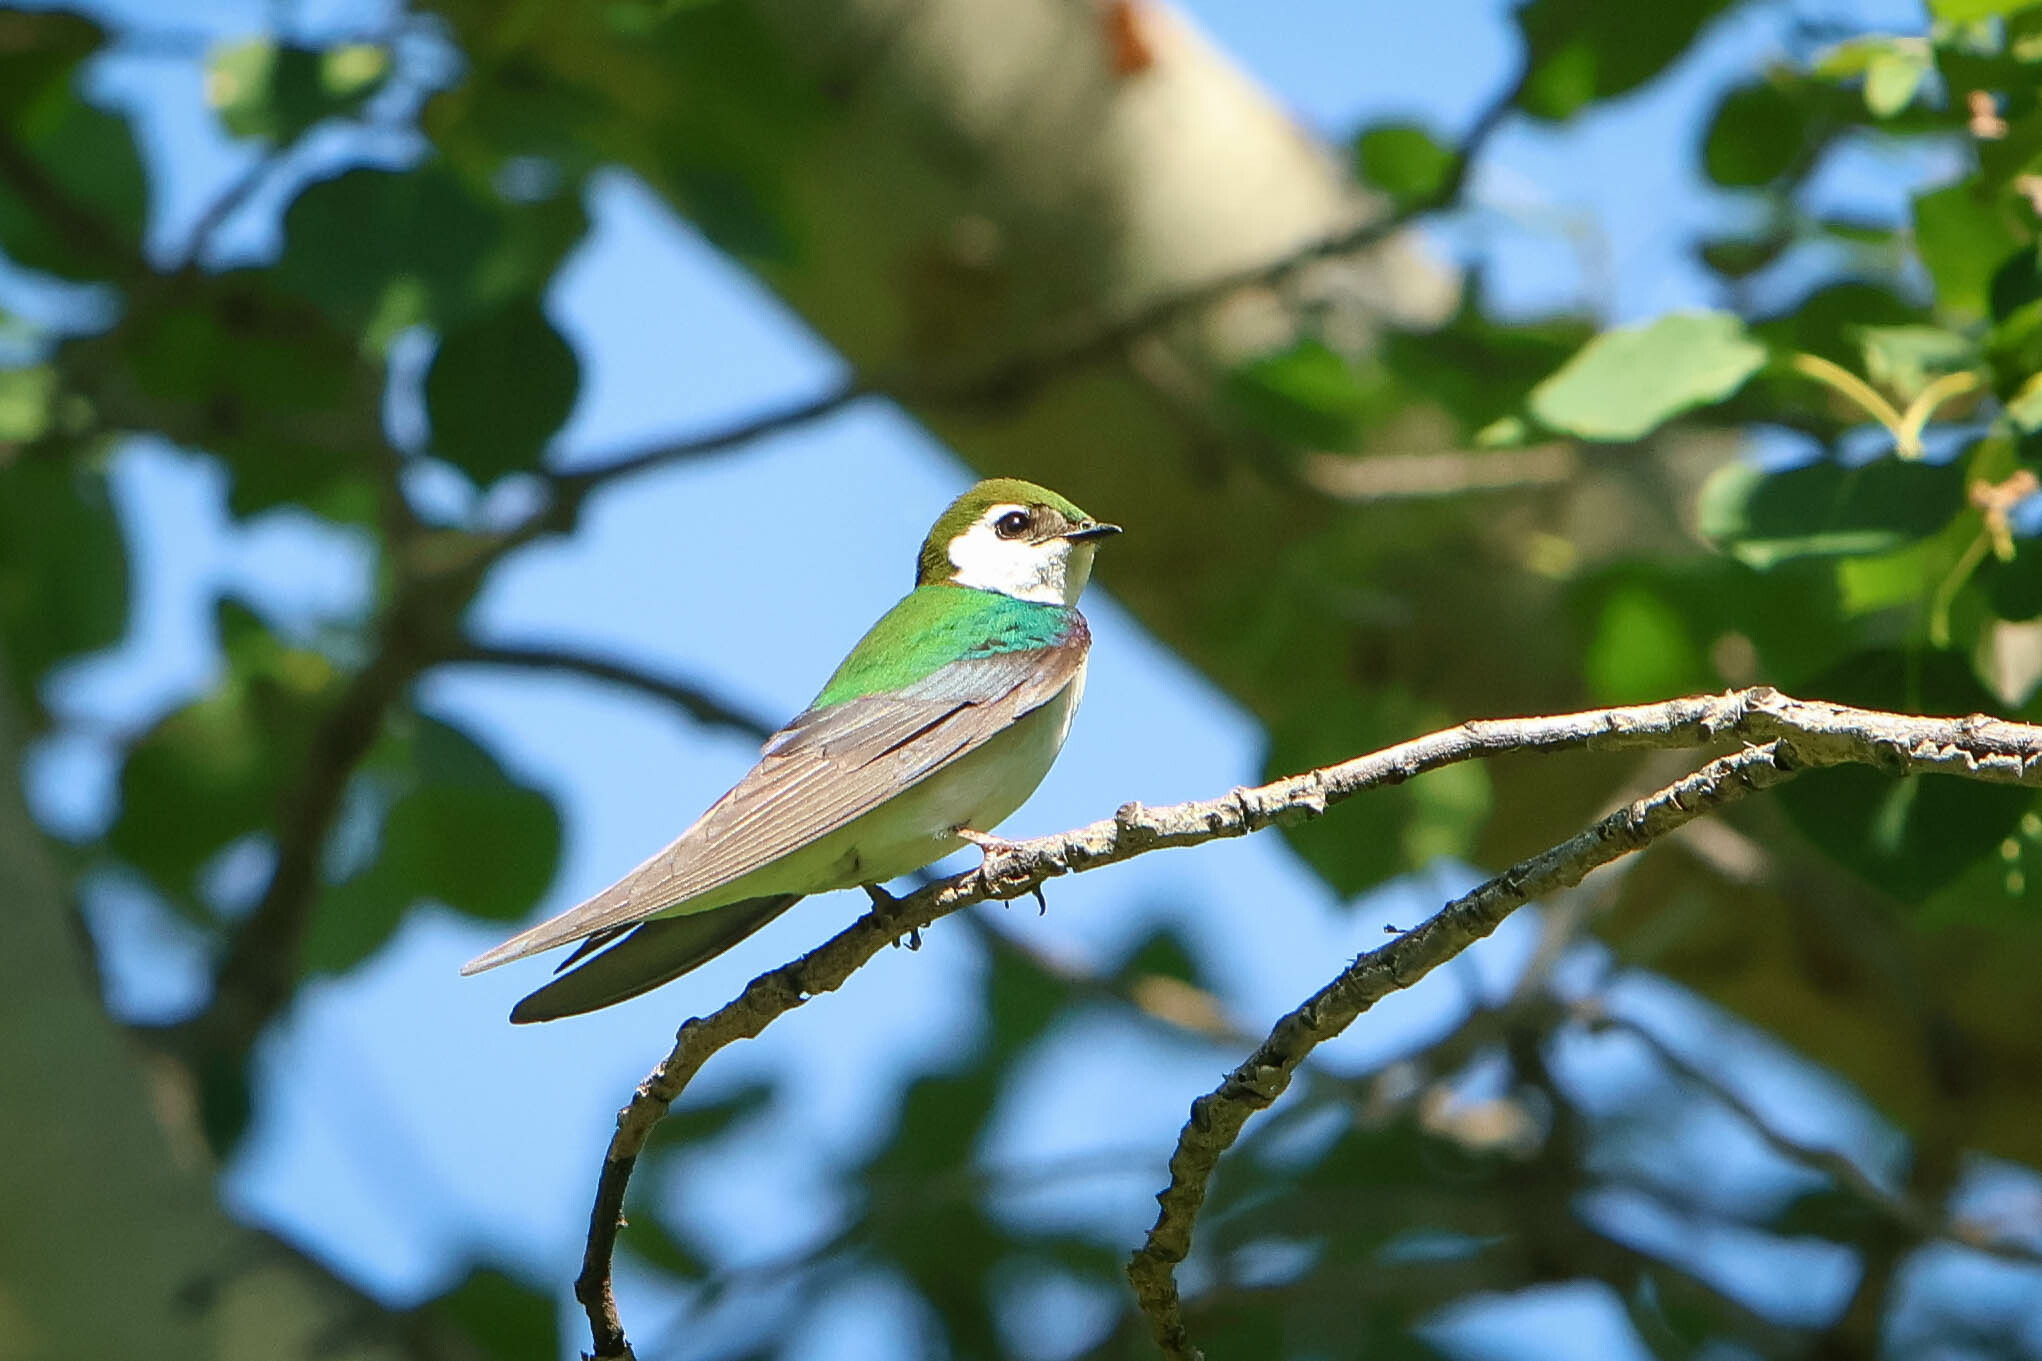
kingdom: Animalia
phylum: Chordata
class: Aves
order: Passeriformes
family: Hirundinidae
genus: Tachycineta
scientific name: Tachycineta thalassina
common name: Violet-green swallow
